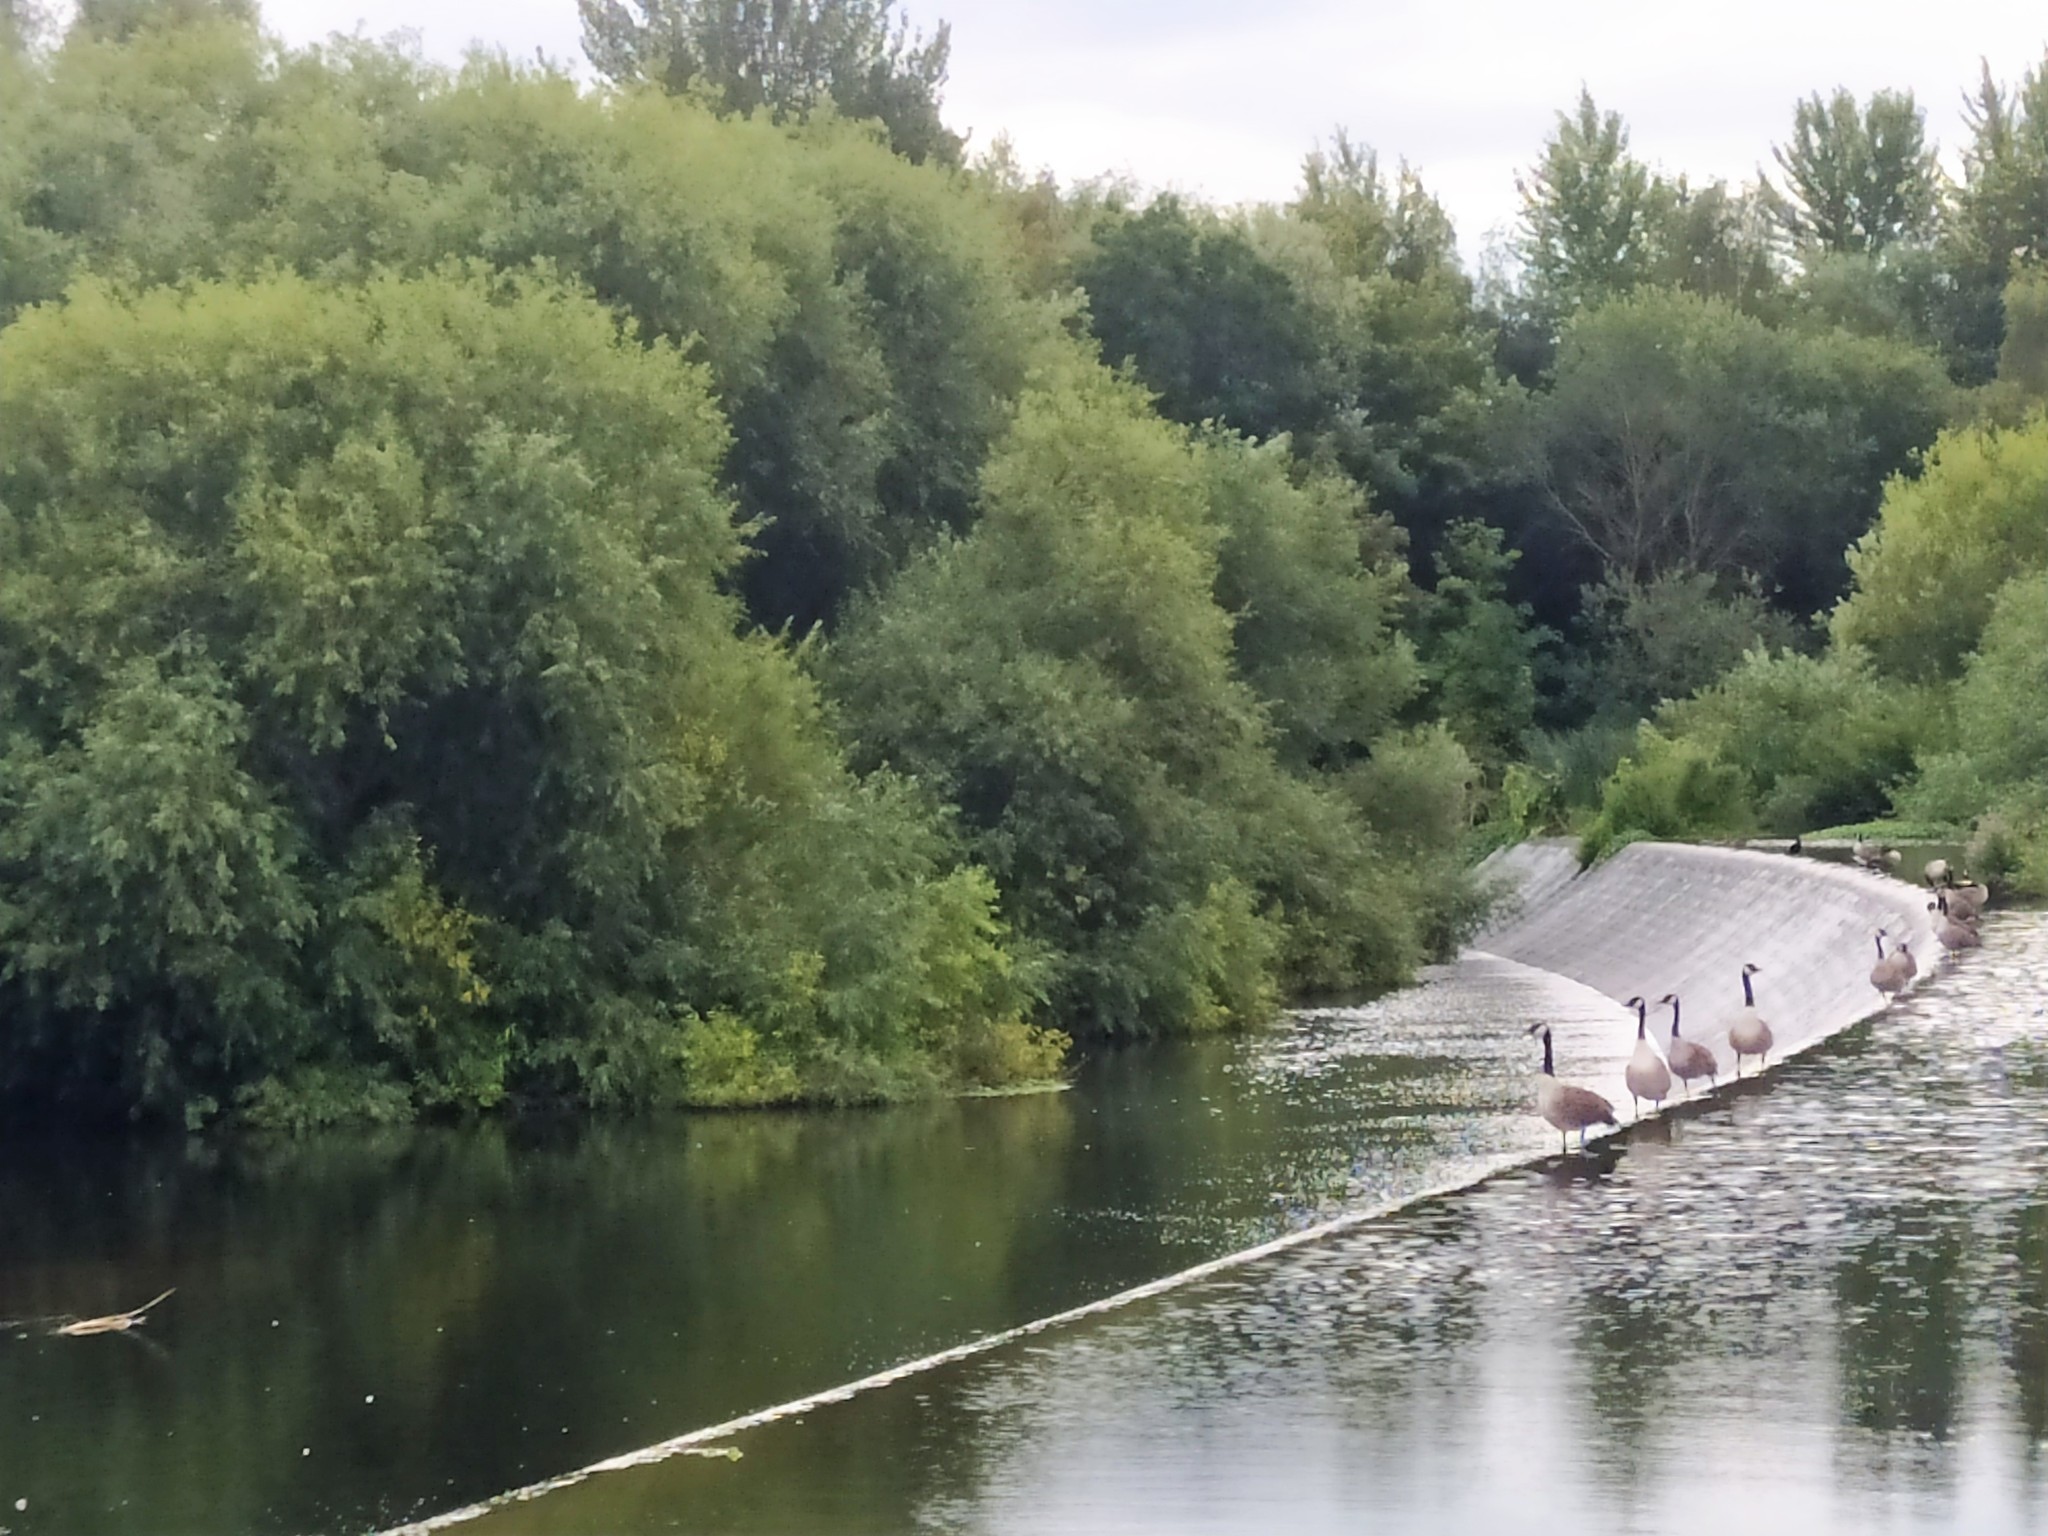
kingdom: Animalia
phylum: Chordata
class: Aves
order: Anseriformes
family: Anatidae
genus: Branta
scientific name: Branta canadensis
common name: Canada goose
